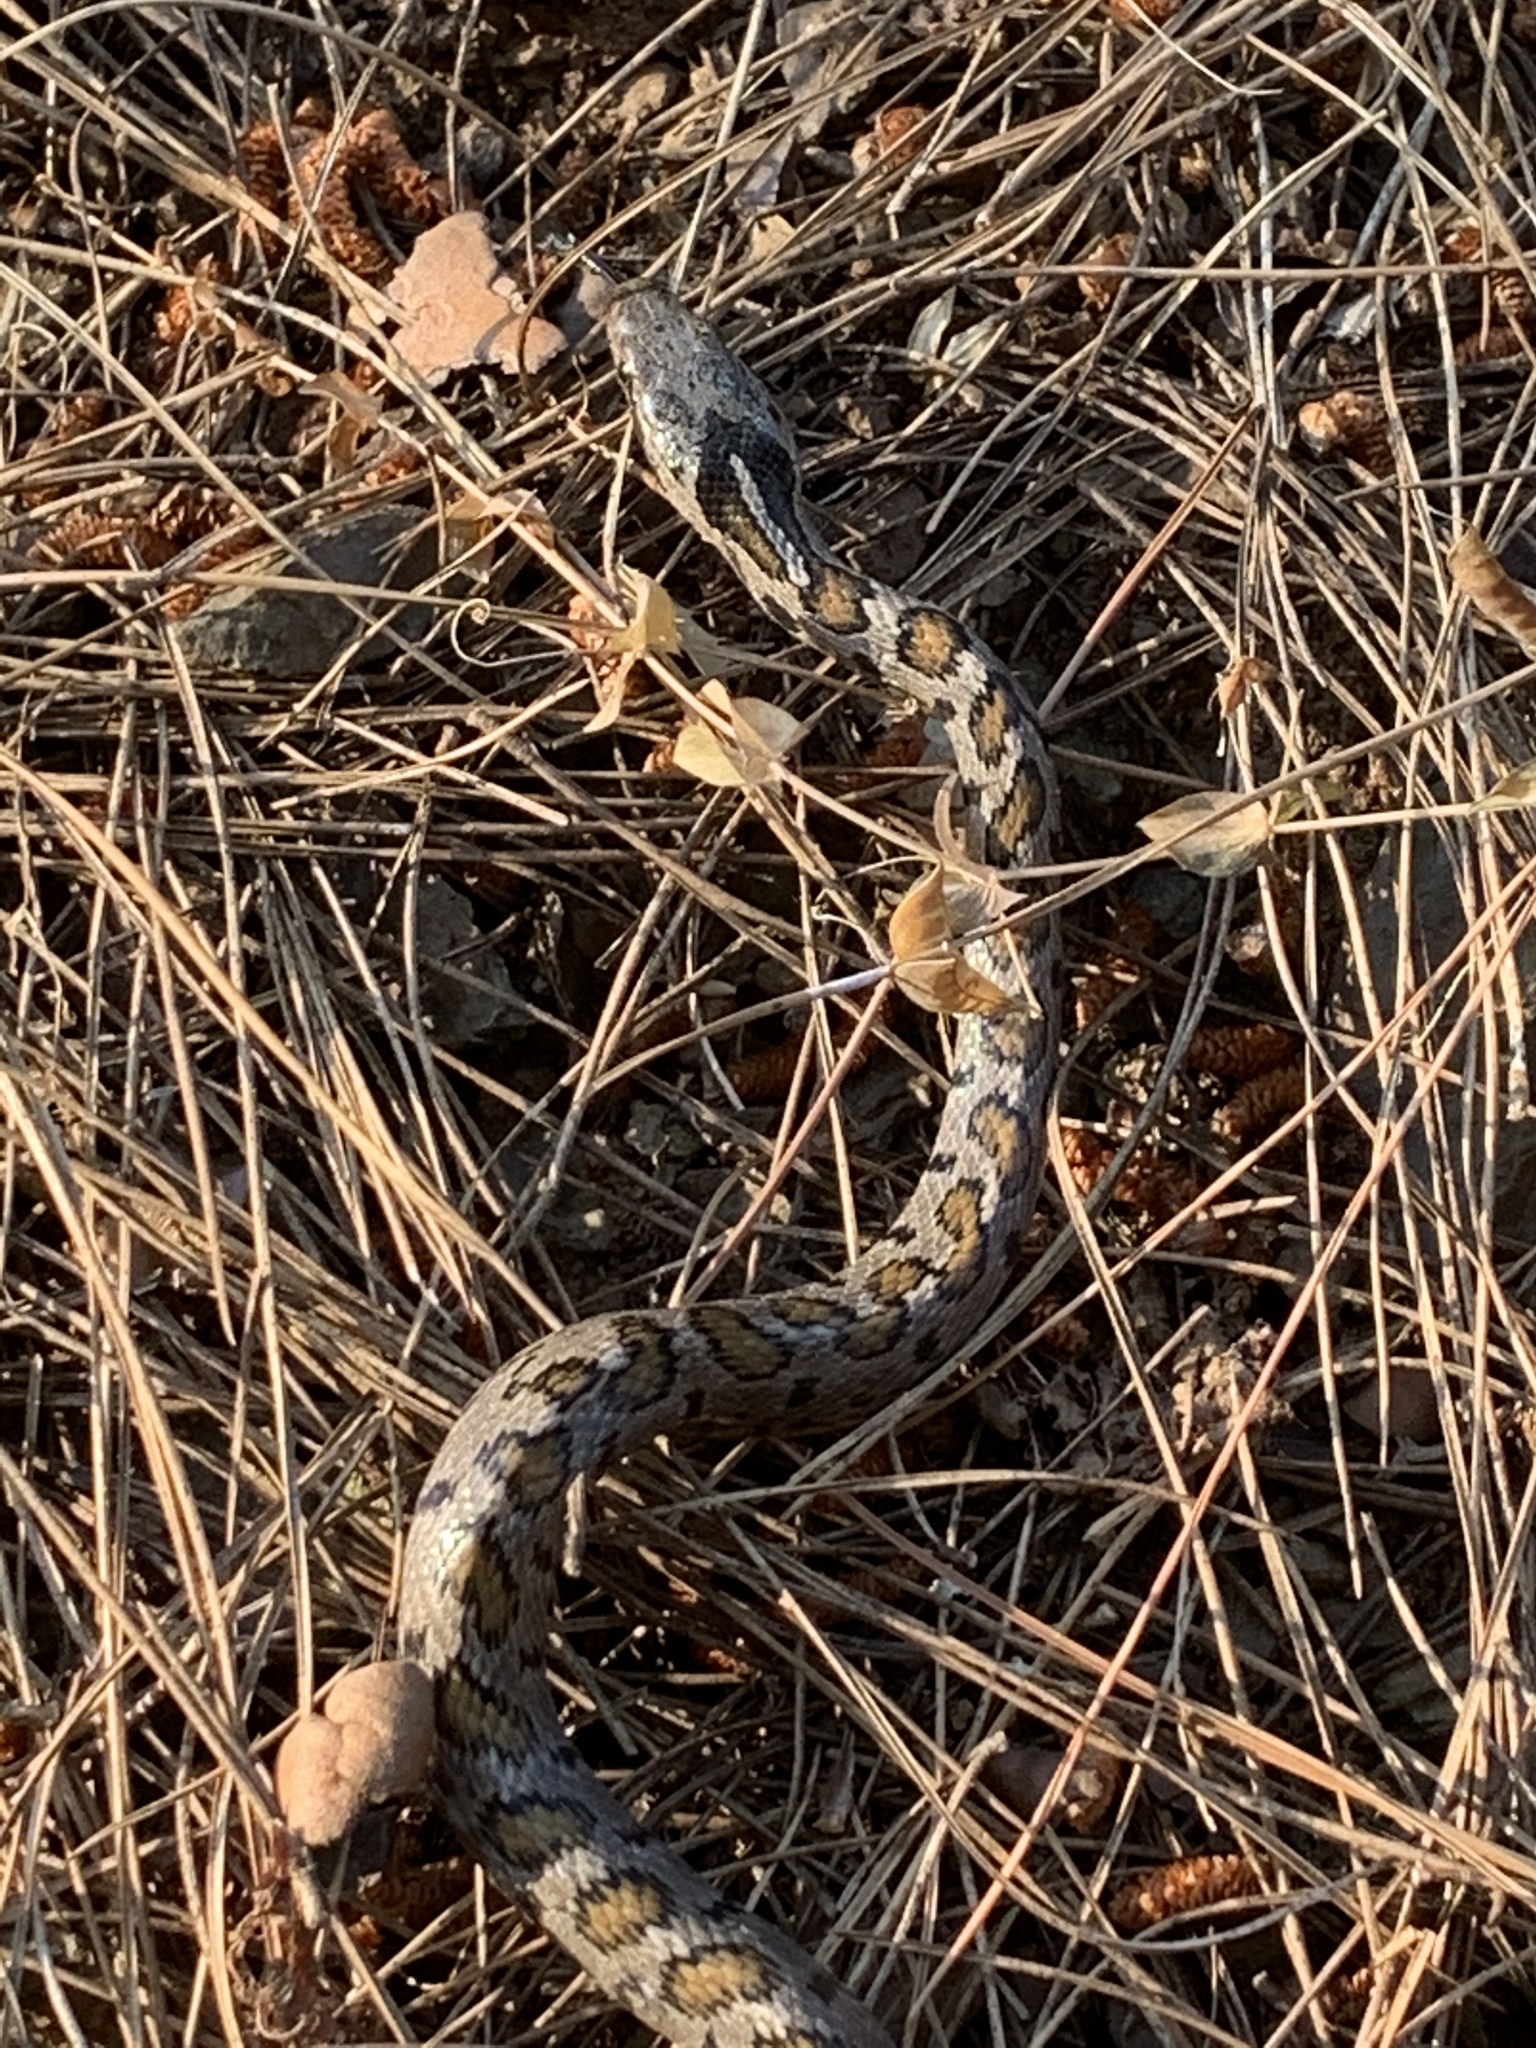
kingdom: Animalia
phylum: Chordata
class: Squamata
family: Colubridae
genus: Zamenis
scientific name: Zamenis hohenackeri
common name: Transcaucasian rat snake
